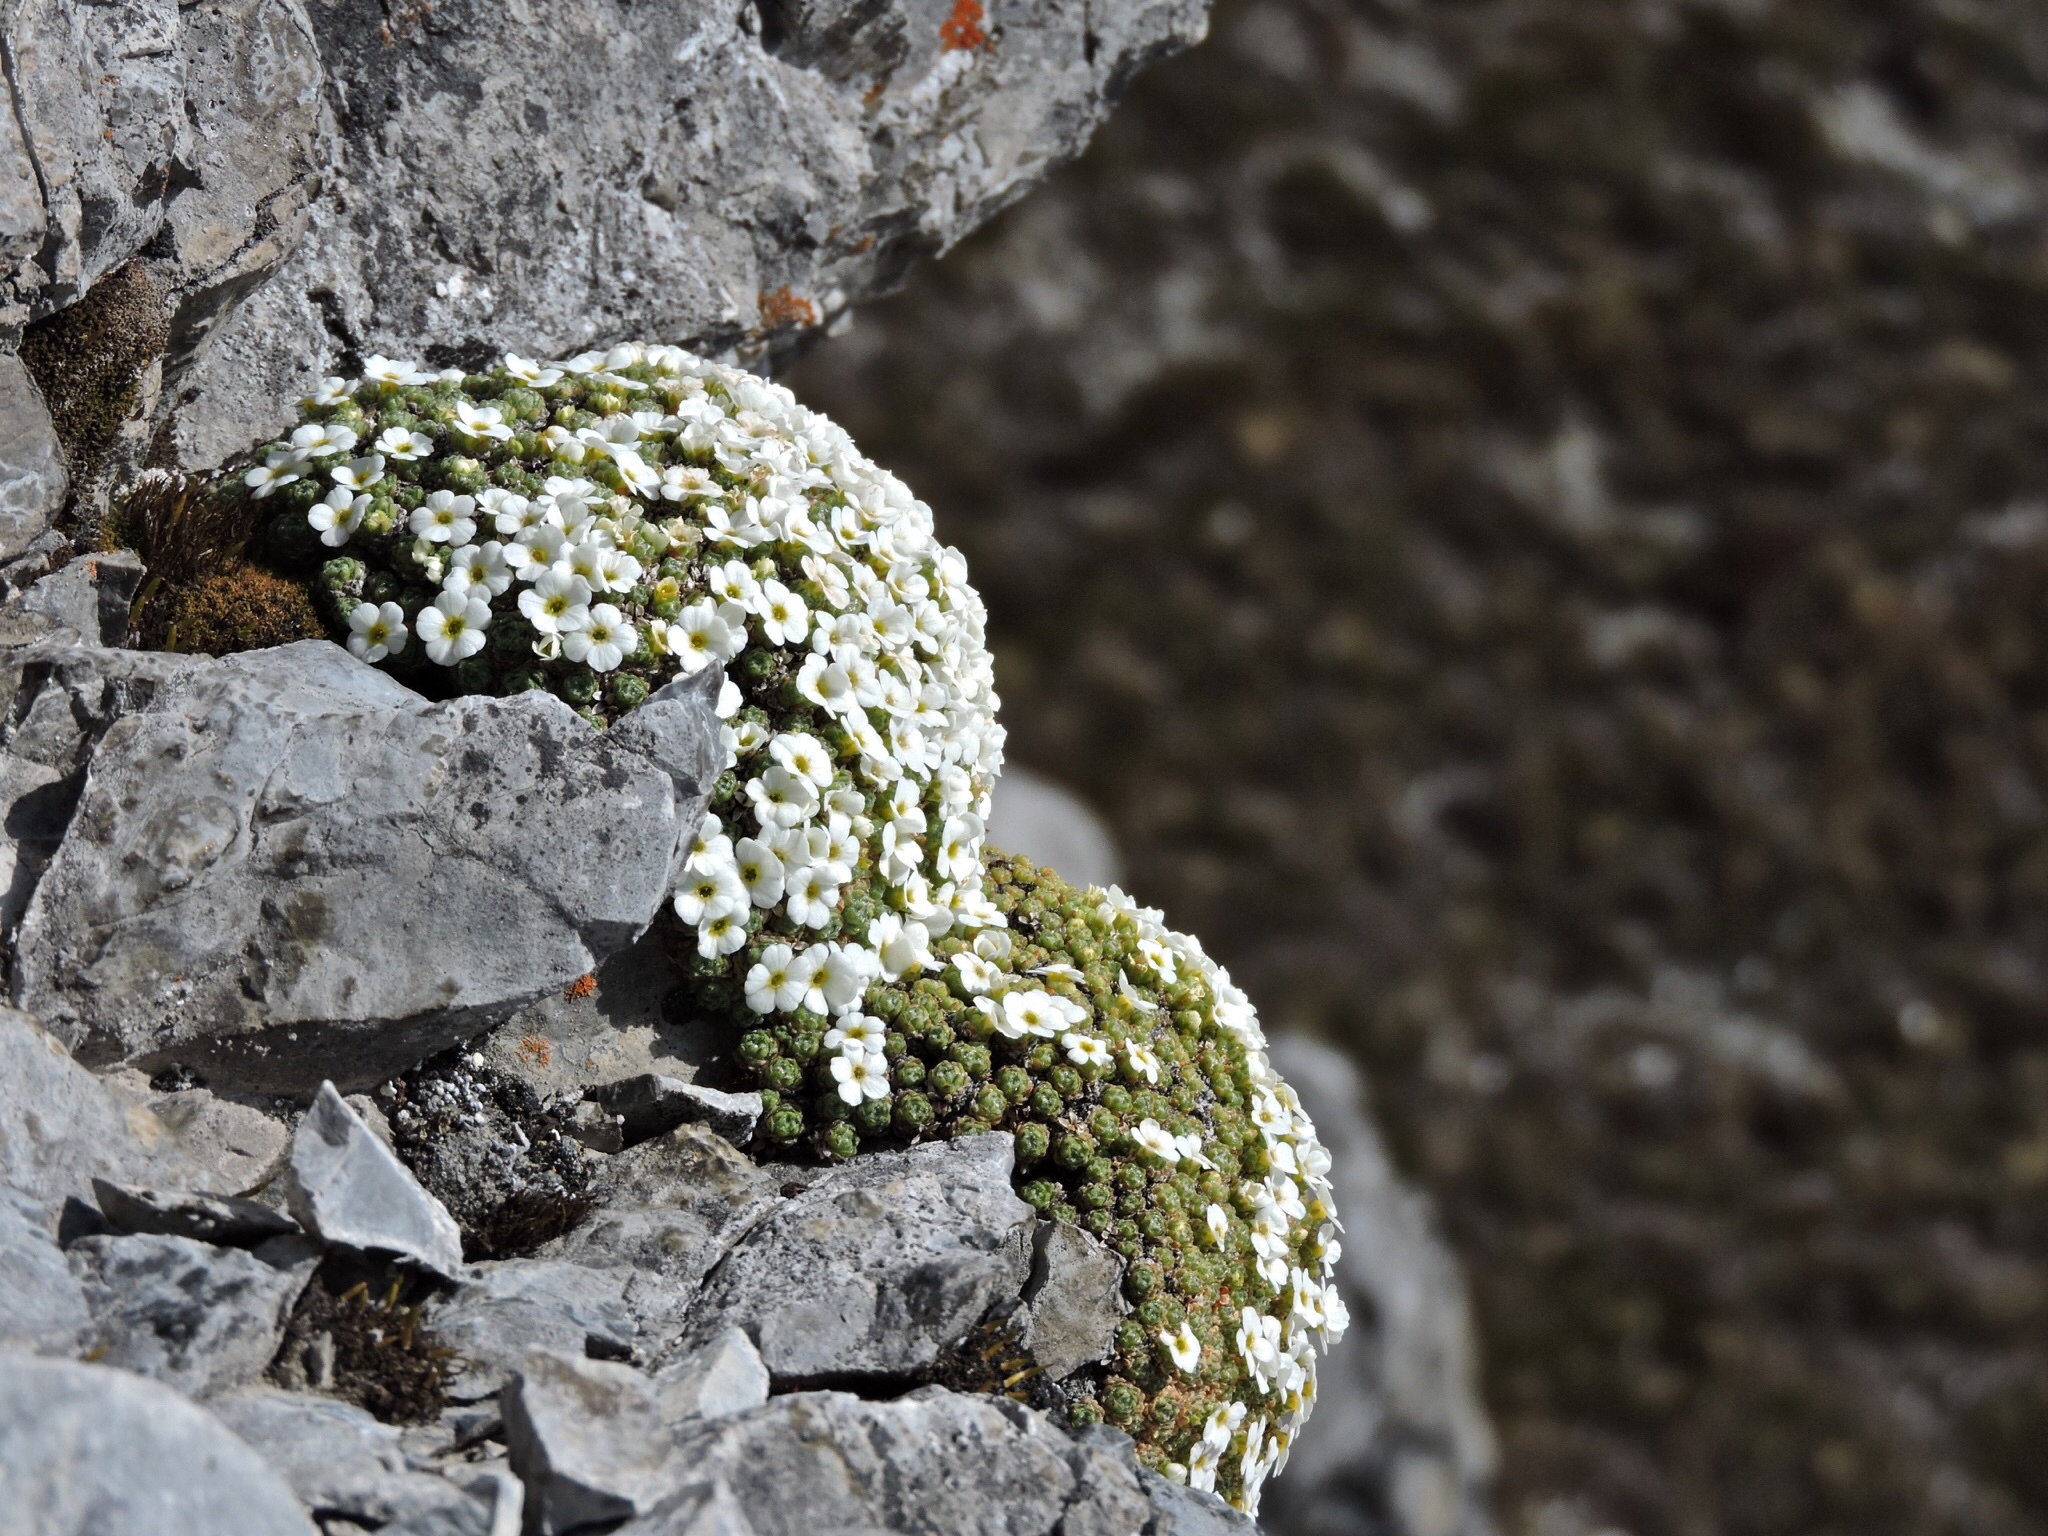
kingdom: Plantae
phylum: Tracheophyta
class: Magnoliopsida
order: Ericales
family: Primulaceae
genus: Androsace
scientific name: Androsace helvetica
